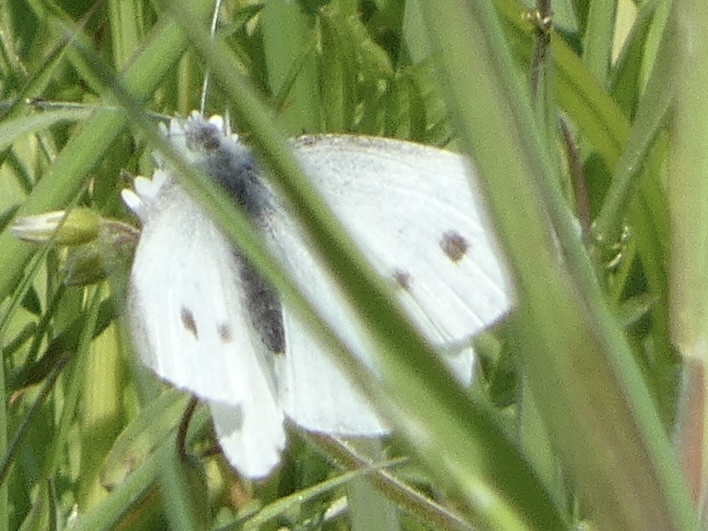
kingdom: Animalia
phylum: Arthropoda
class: Insecta
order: Lepidoptera
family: Pieridae
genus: Pieris
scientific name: Pieris rapae
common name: Small white
